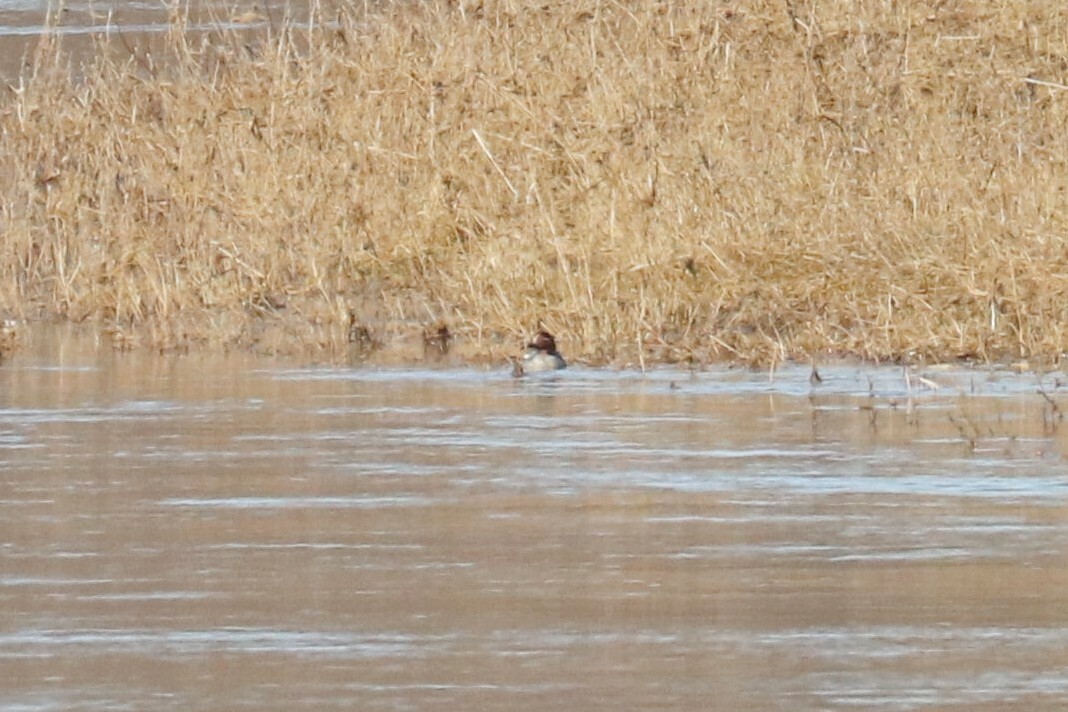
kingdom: Animalia
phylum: Chordata
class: Aves
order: Anseriformes
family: Anatidae
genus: Anas
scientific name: Anas crecca
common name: Eurasian teal
